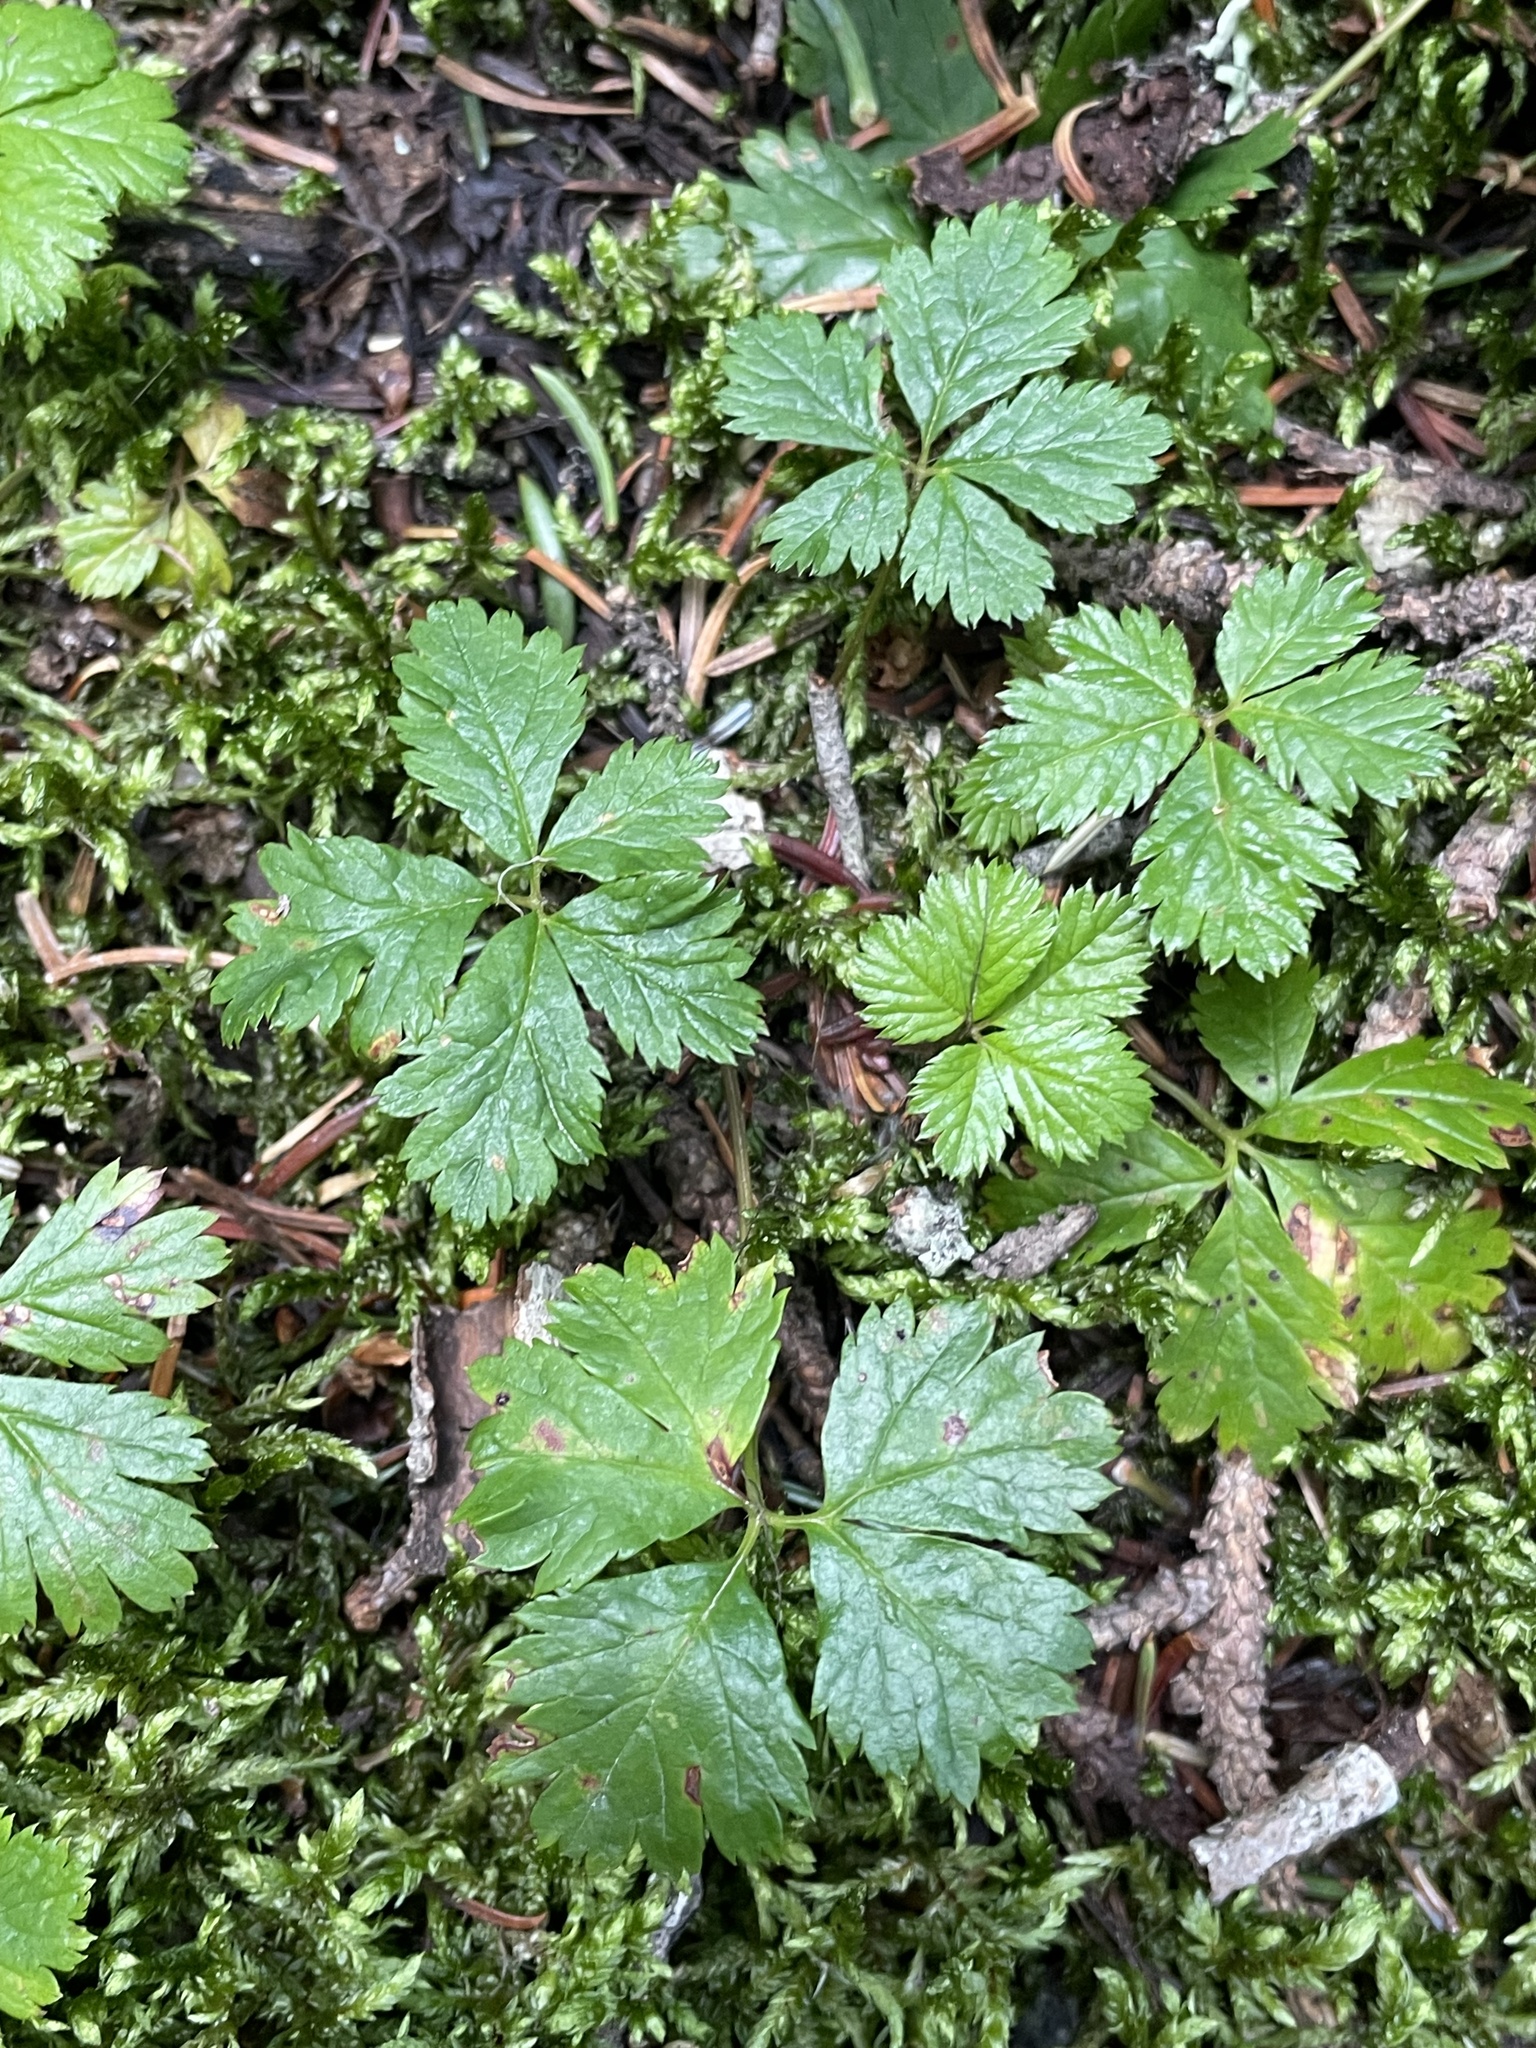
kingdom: Plantae
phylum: Tracheophyta
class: Magnoliopsida
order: Rosales
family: Rosaceae
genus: Rubus
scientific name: Rubus pedatus
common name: Creeping raspberry
